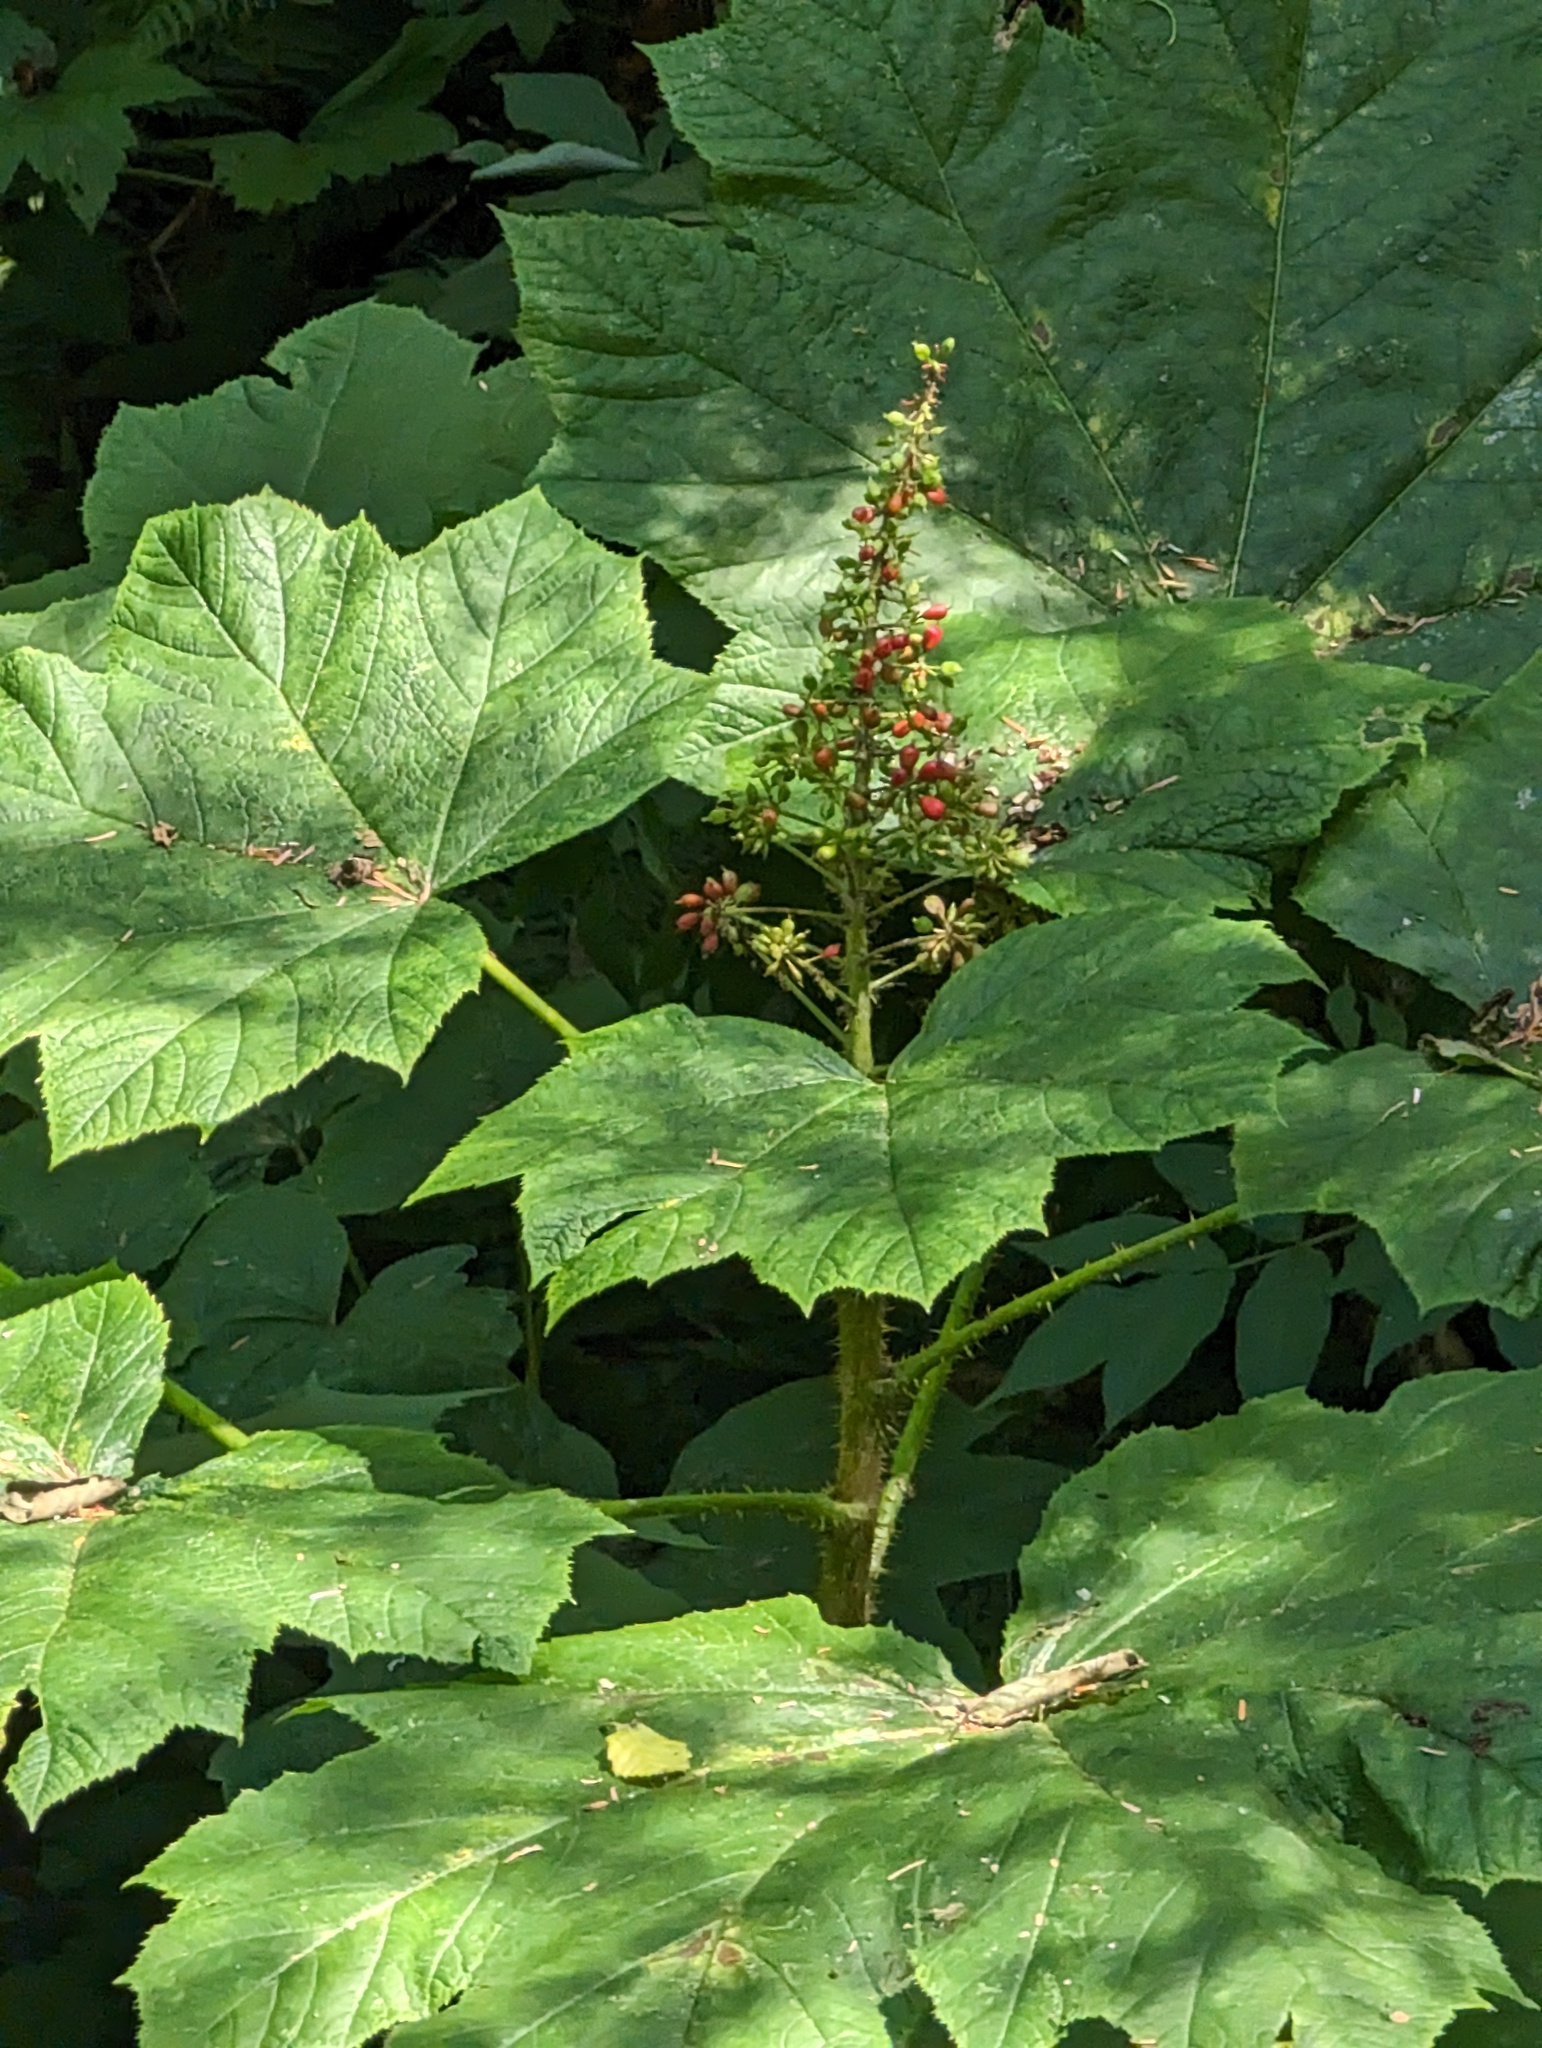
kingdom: Plantae
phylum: Tracheophyta
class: Magnoliopsida
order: Apiales
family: Araliaceae
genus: Oplopanax
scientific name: Oplopanax horridus
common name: Devil's walking-stick
